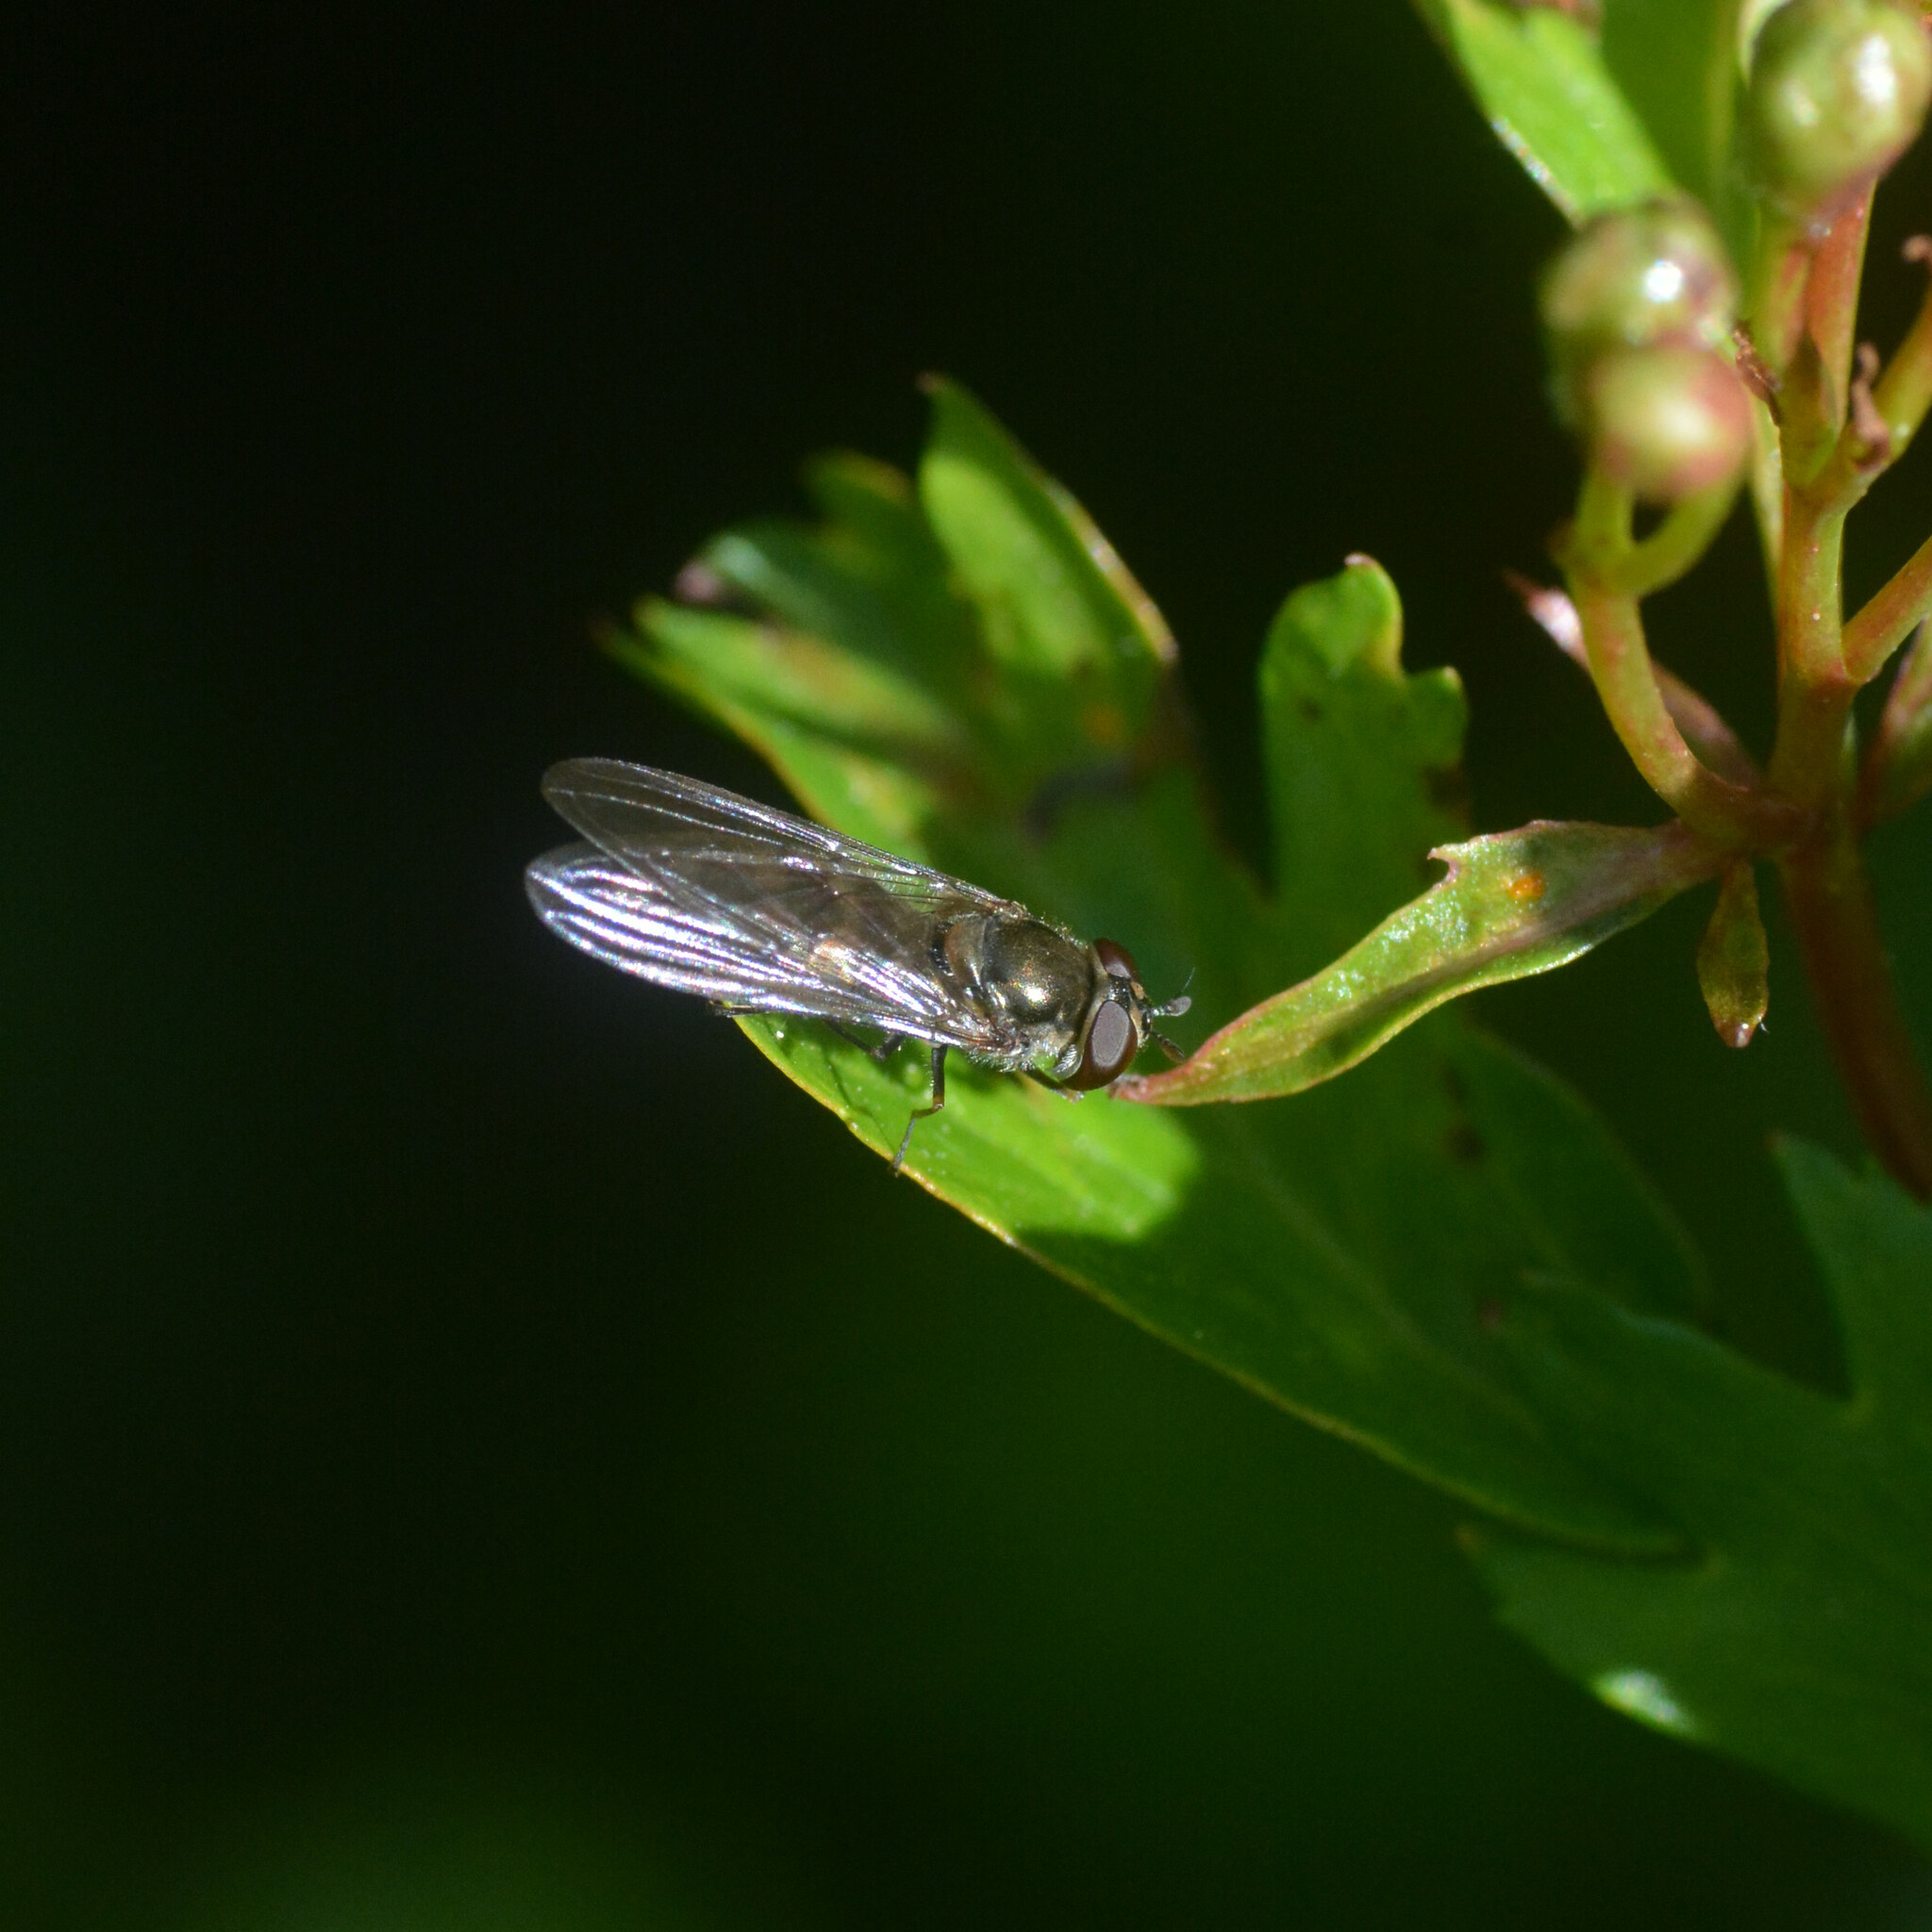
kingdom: Animalia
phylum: Arthropoda
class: Insecta
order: Diptera
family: Syrphidae
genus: Meliscaeva
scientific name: Meliscaeva auricollis
